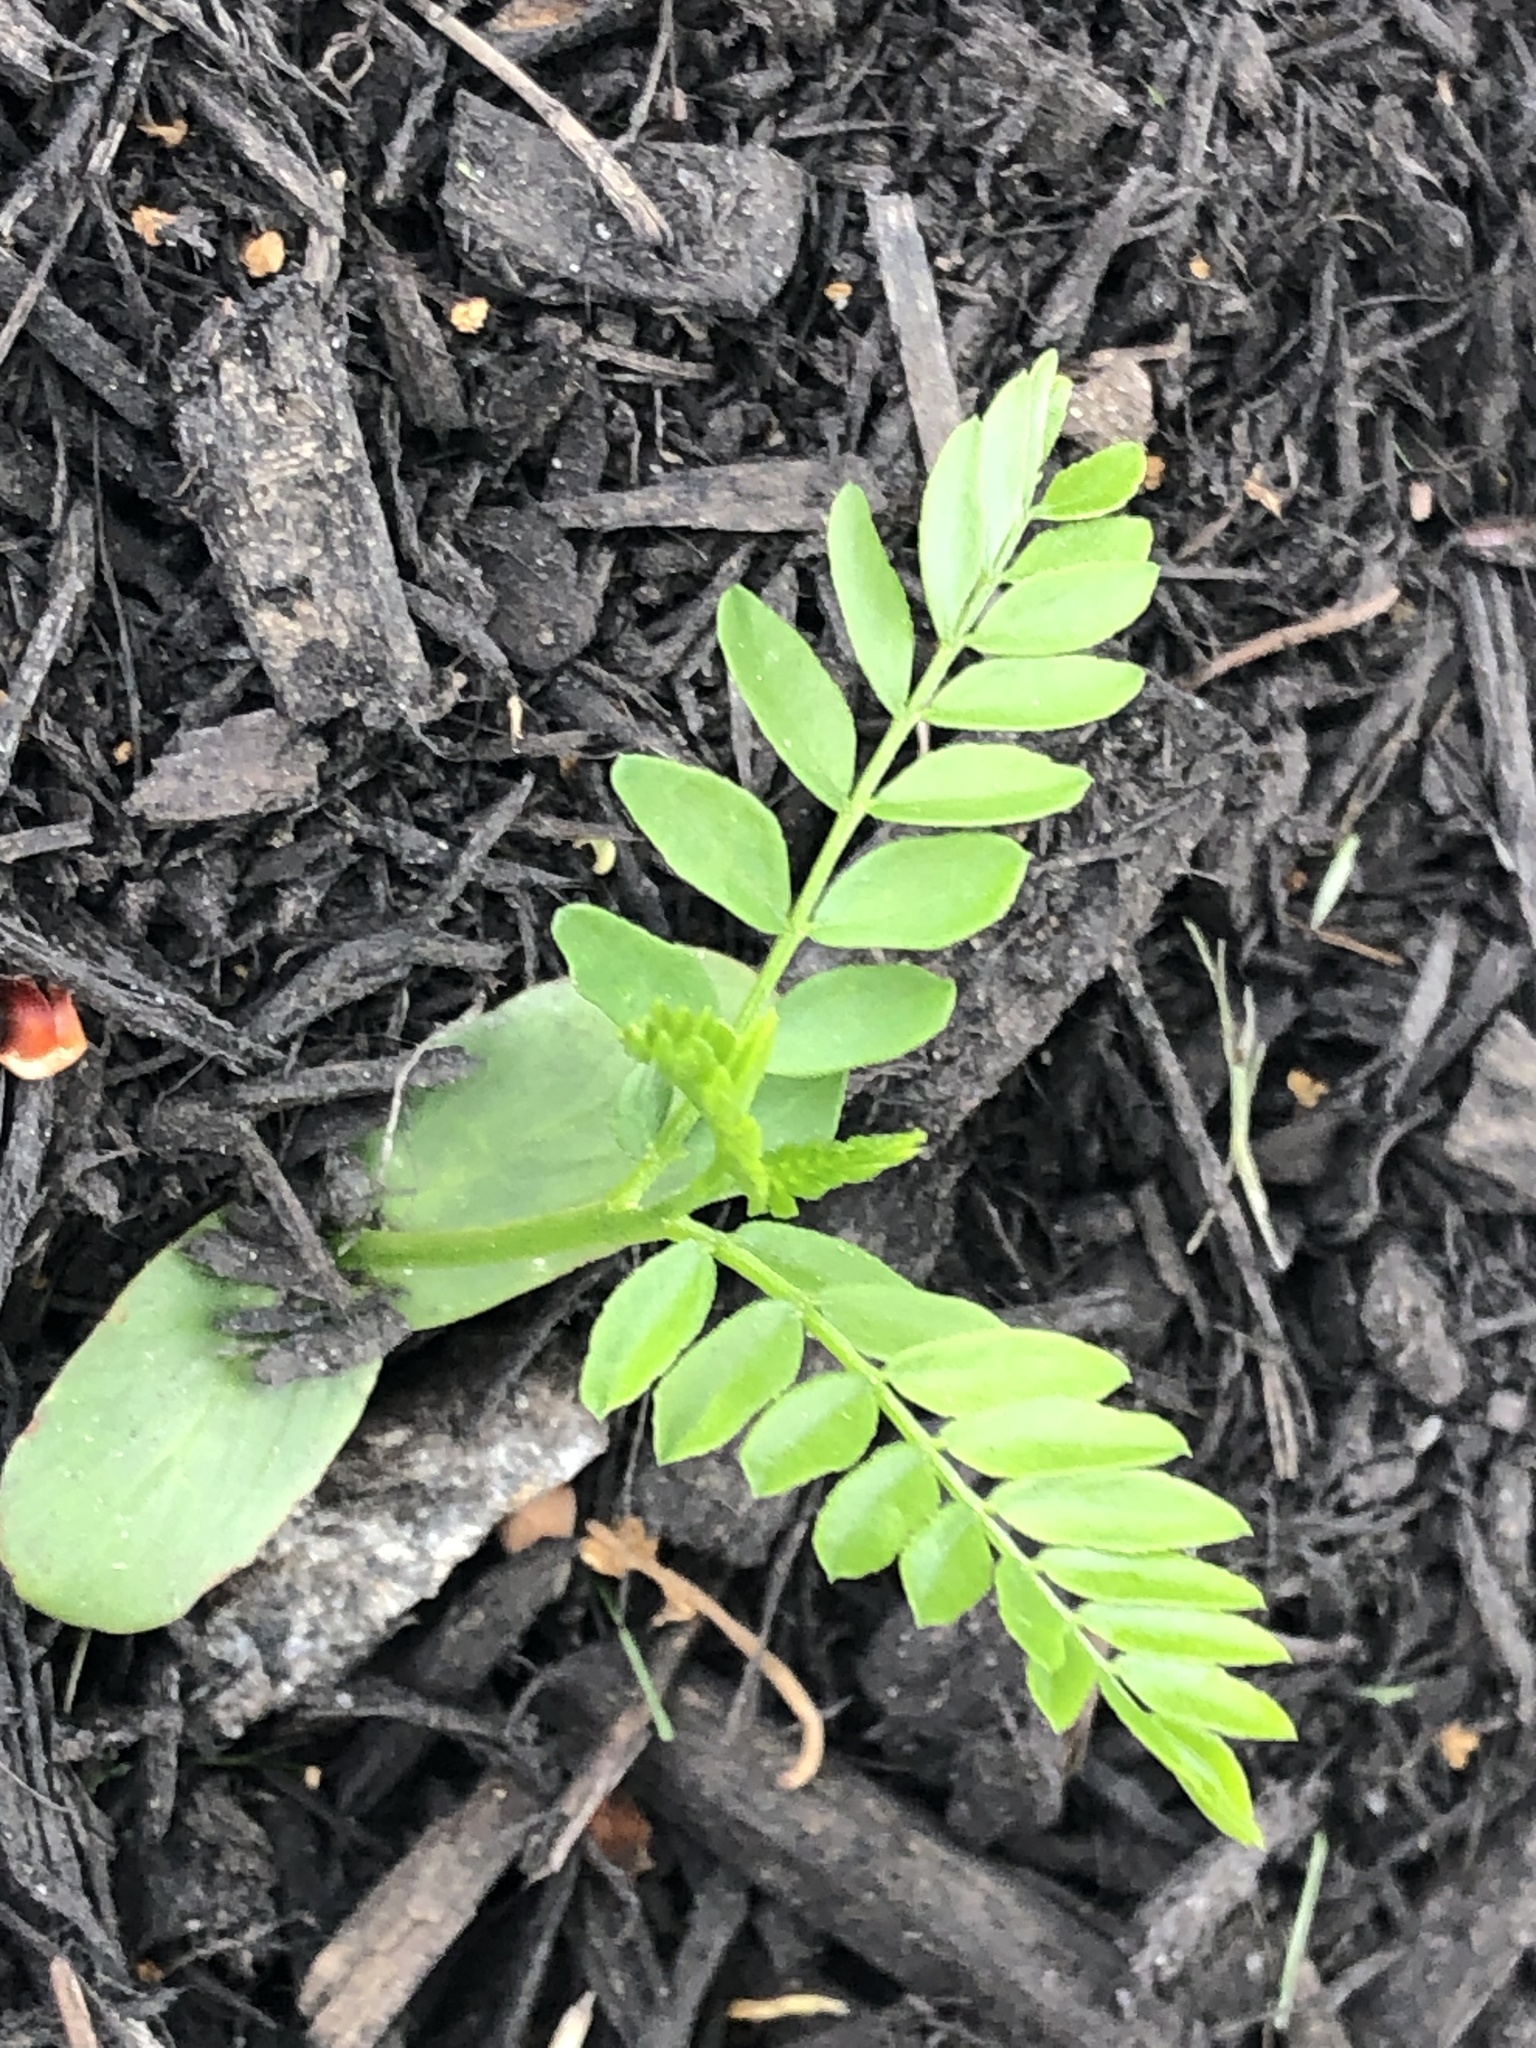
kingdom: Plantae
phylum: Tracheophyta
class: Magnoliopsida
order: Fabales
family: Fabaceae
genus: Gleditsia
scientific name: Gleditsia triacanthos
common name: Common honeylocust
